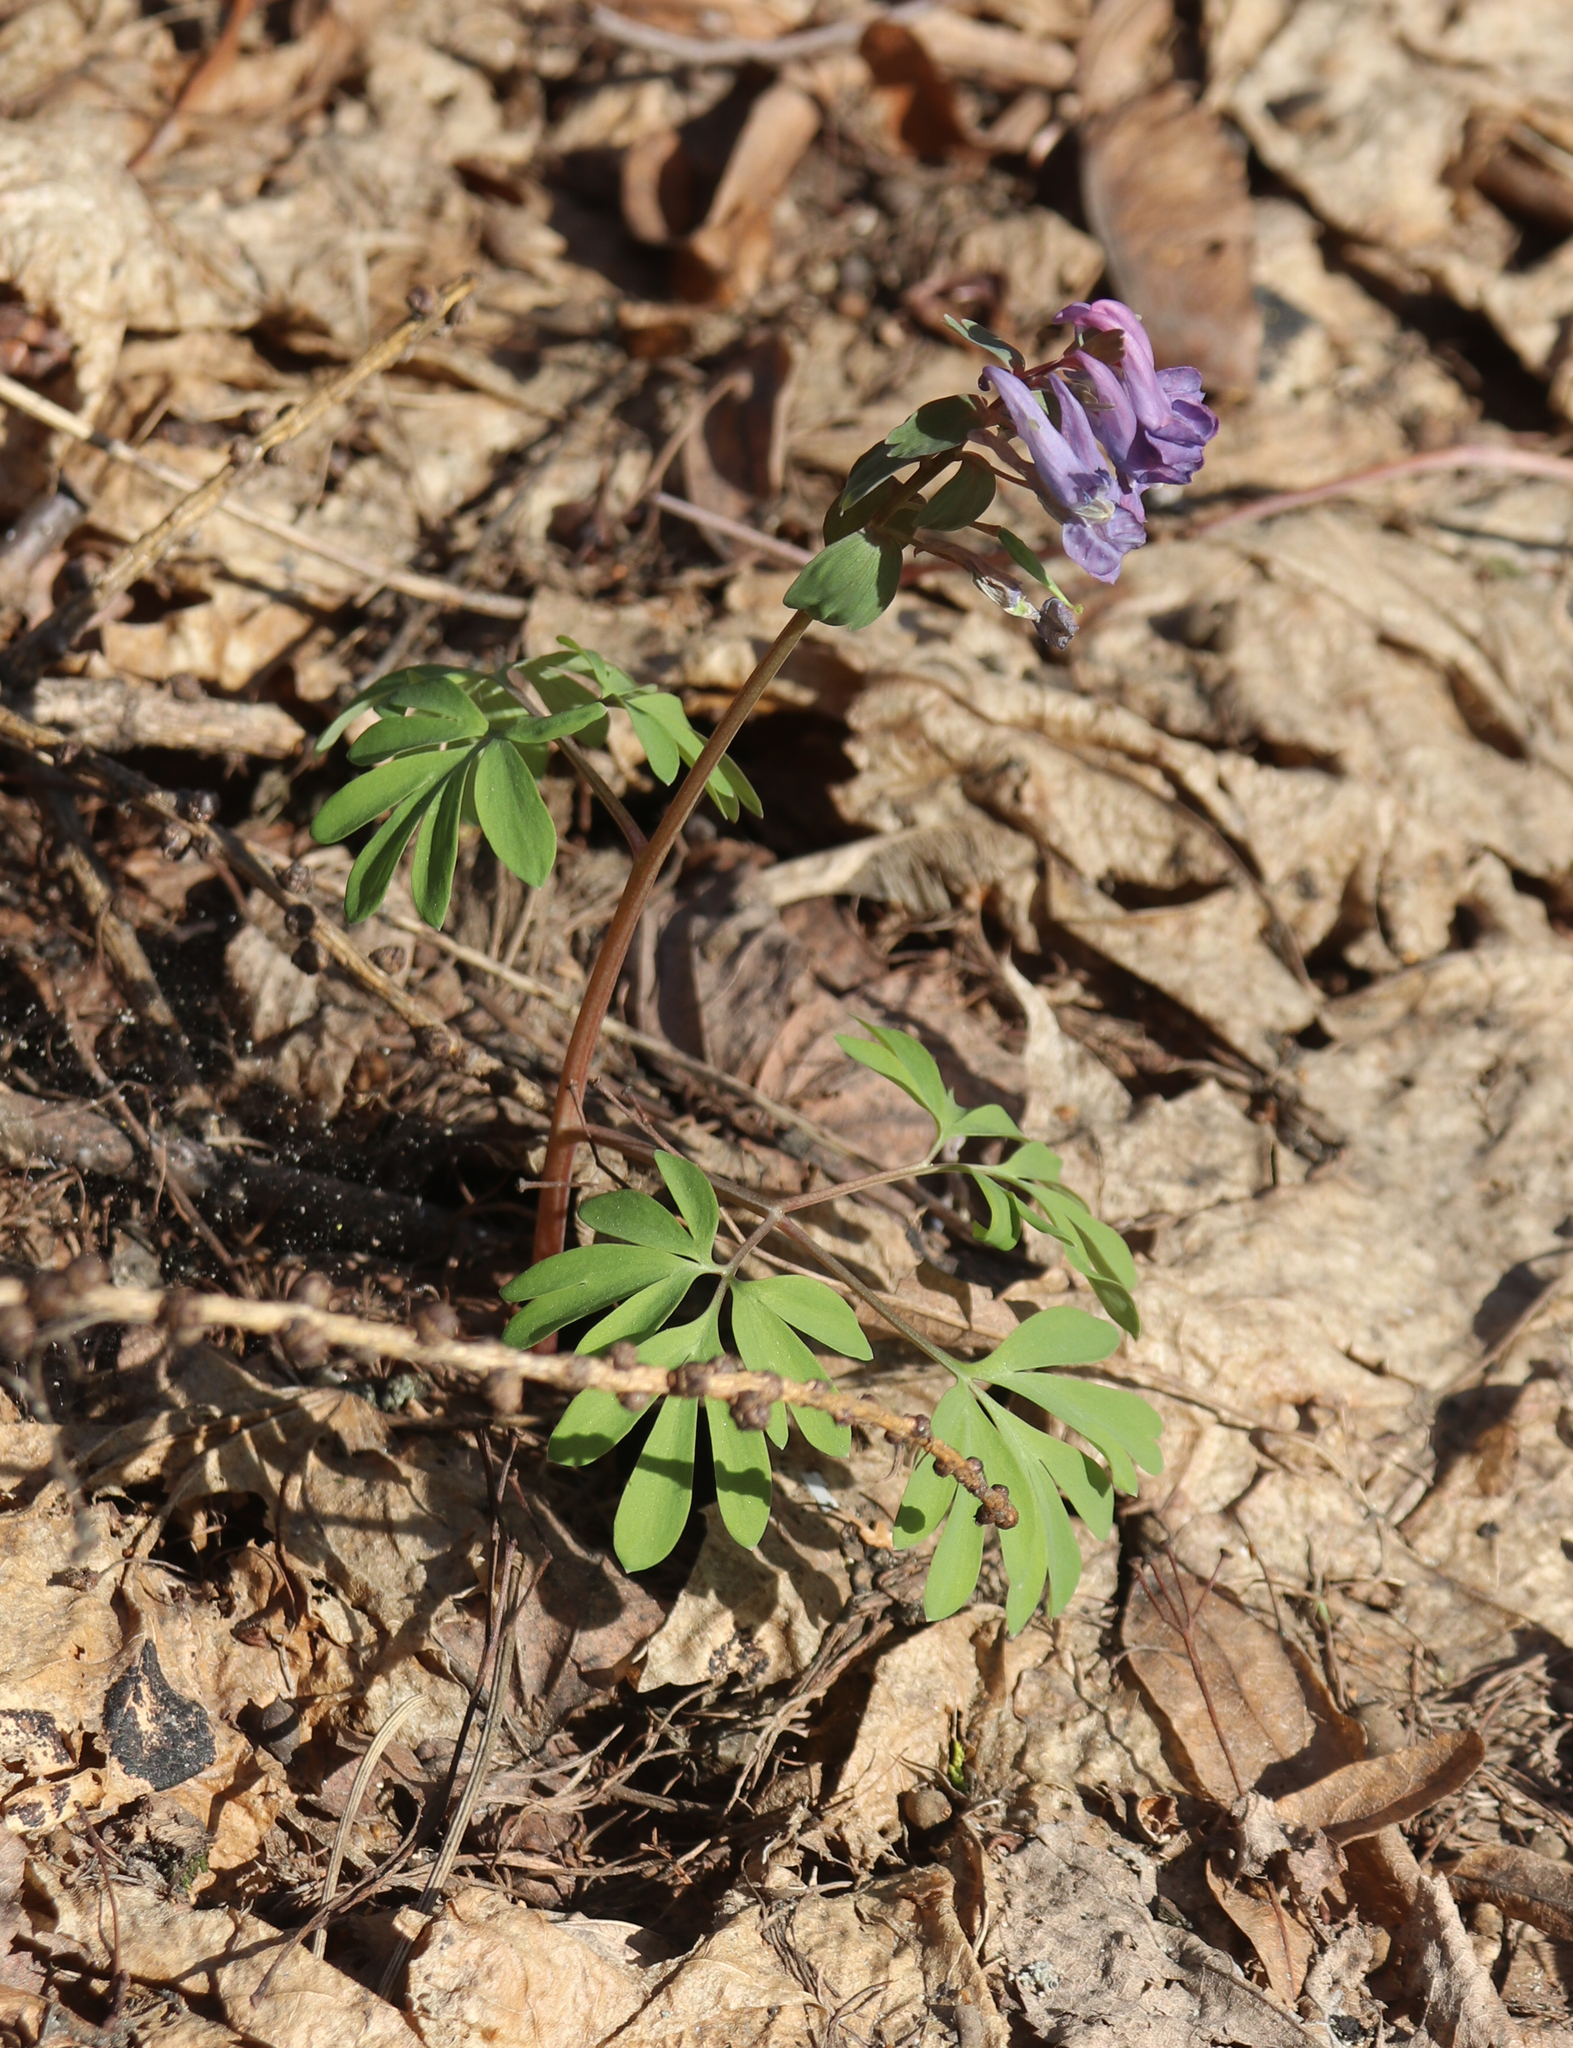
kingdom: Plantae
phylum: Tracheophyta
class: Magnoliopsida
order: Ranunculales
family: Papaveraceae
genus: Corydalis
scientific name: Corydalis solida
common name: Bird-in-a-bush
